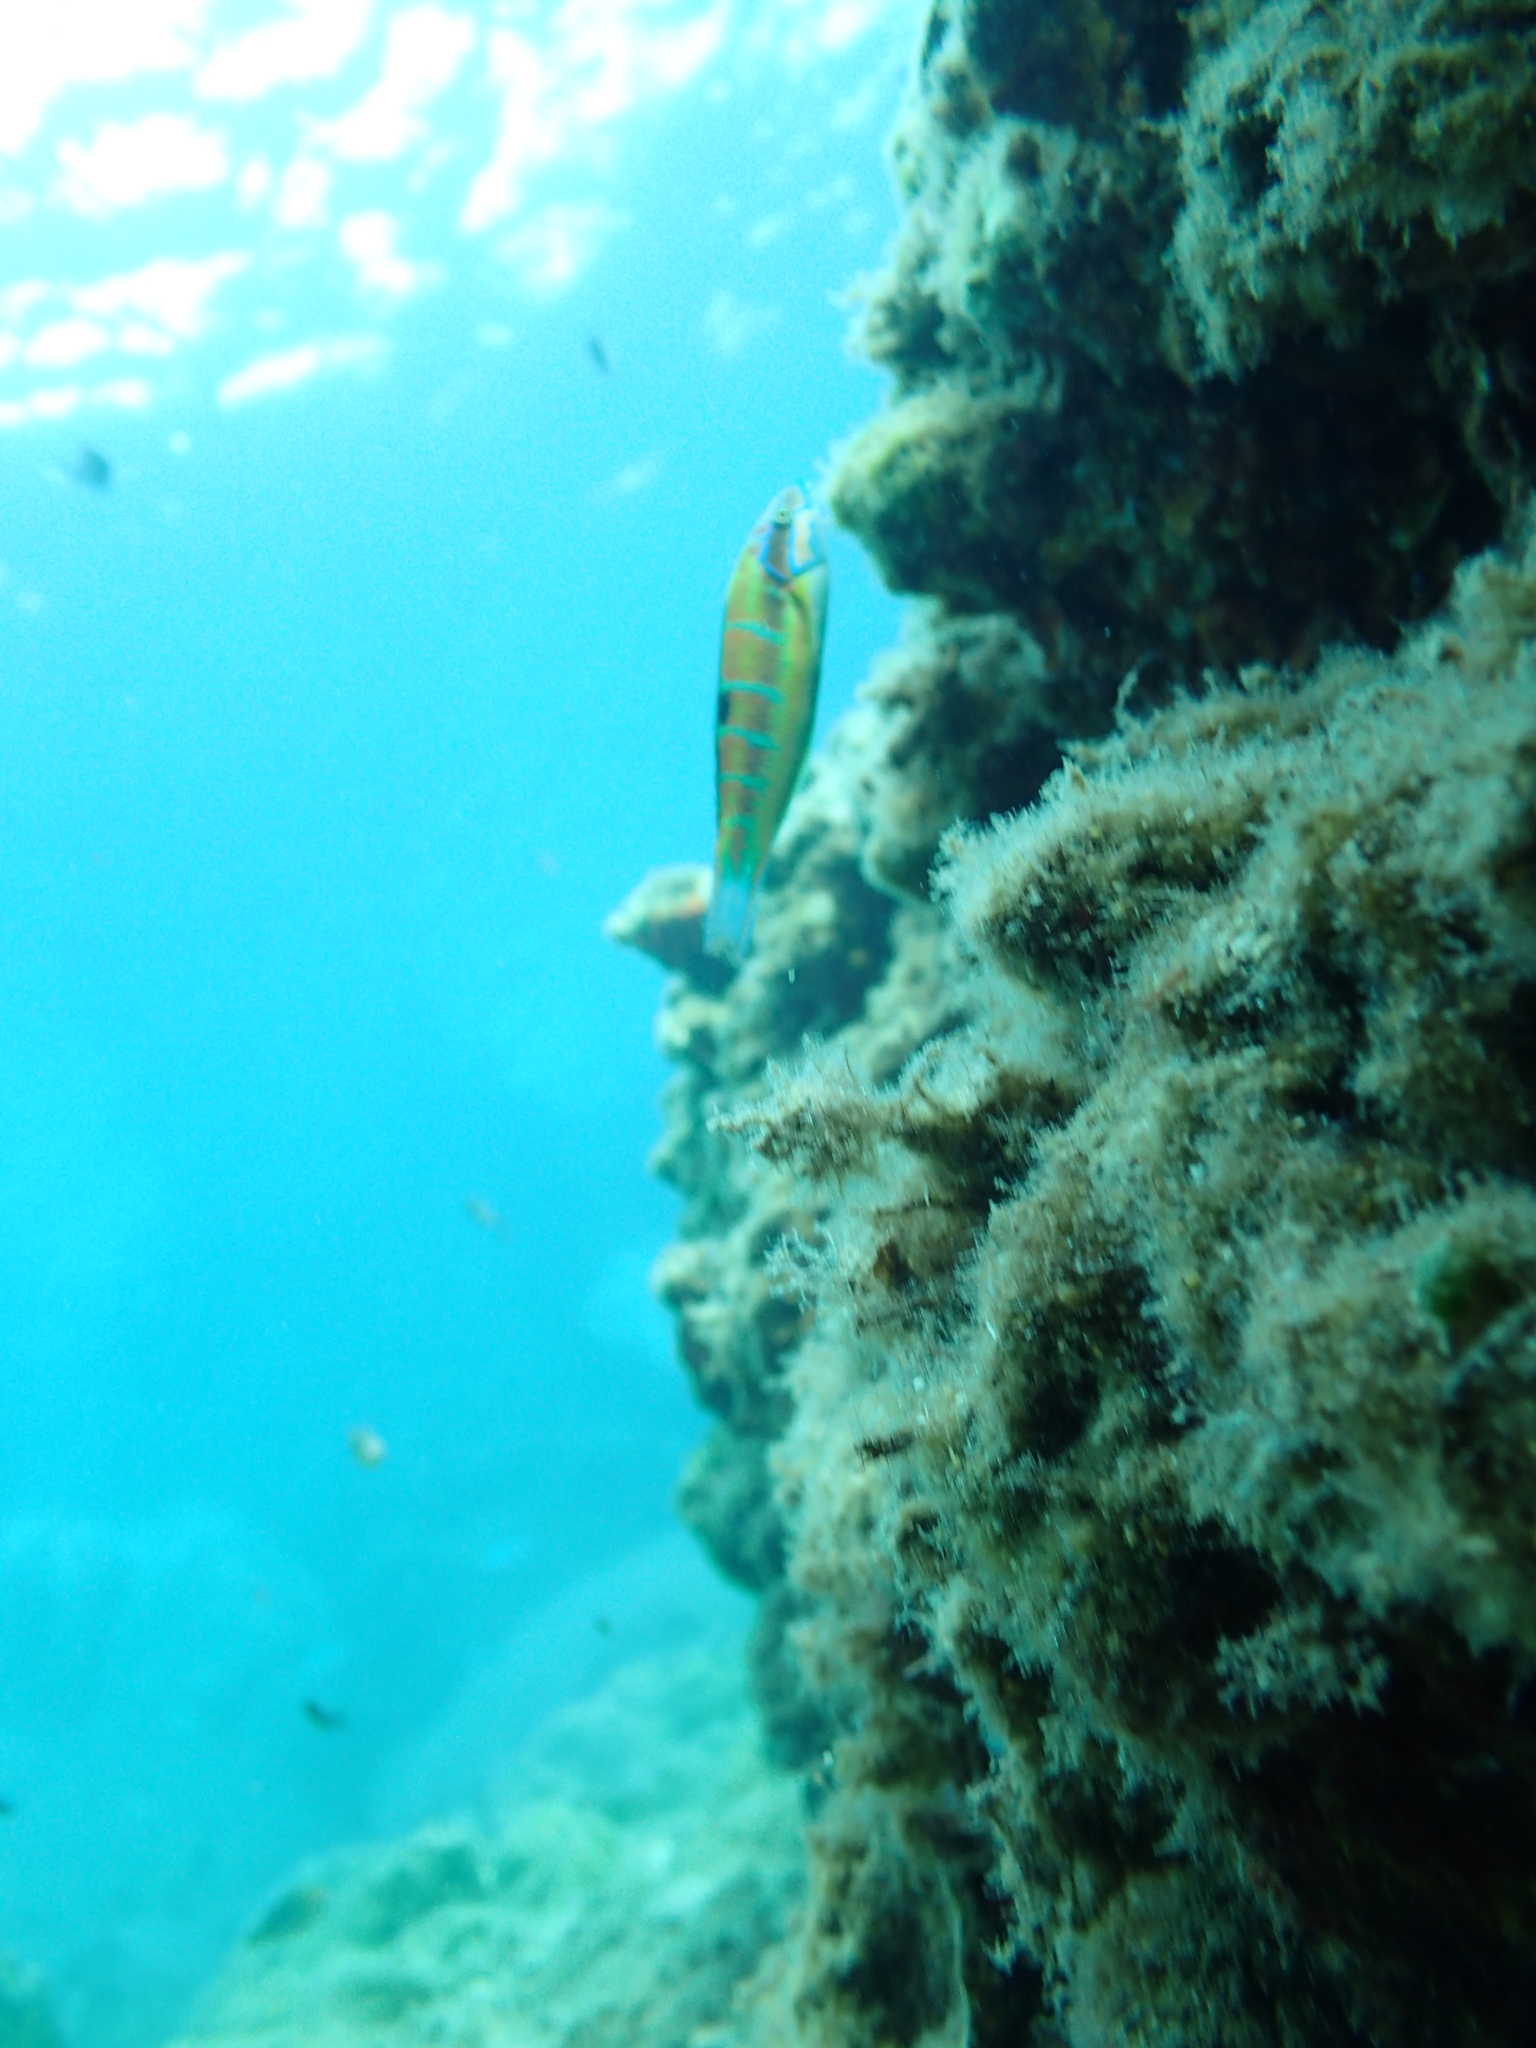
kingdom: Animalia
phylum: Chordata
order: Perciformes
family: Labridae
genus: Thalassoma
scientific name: Thalassoma pavo
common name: Ornate wrasse
